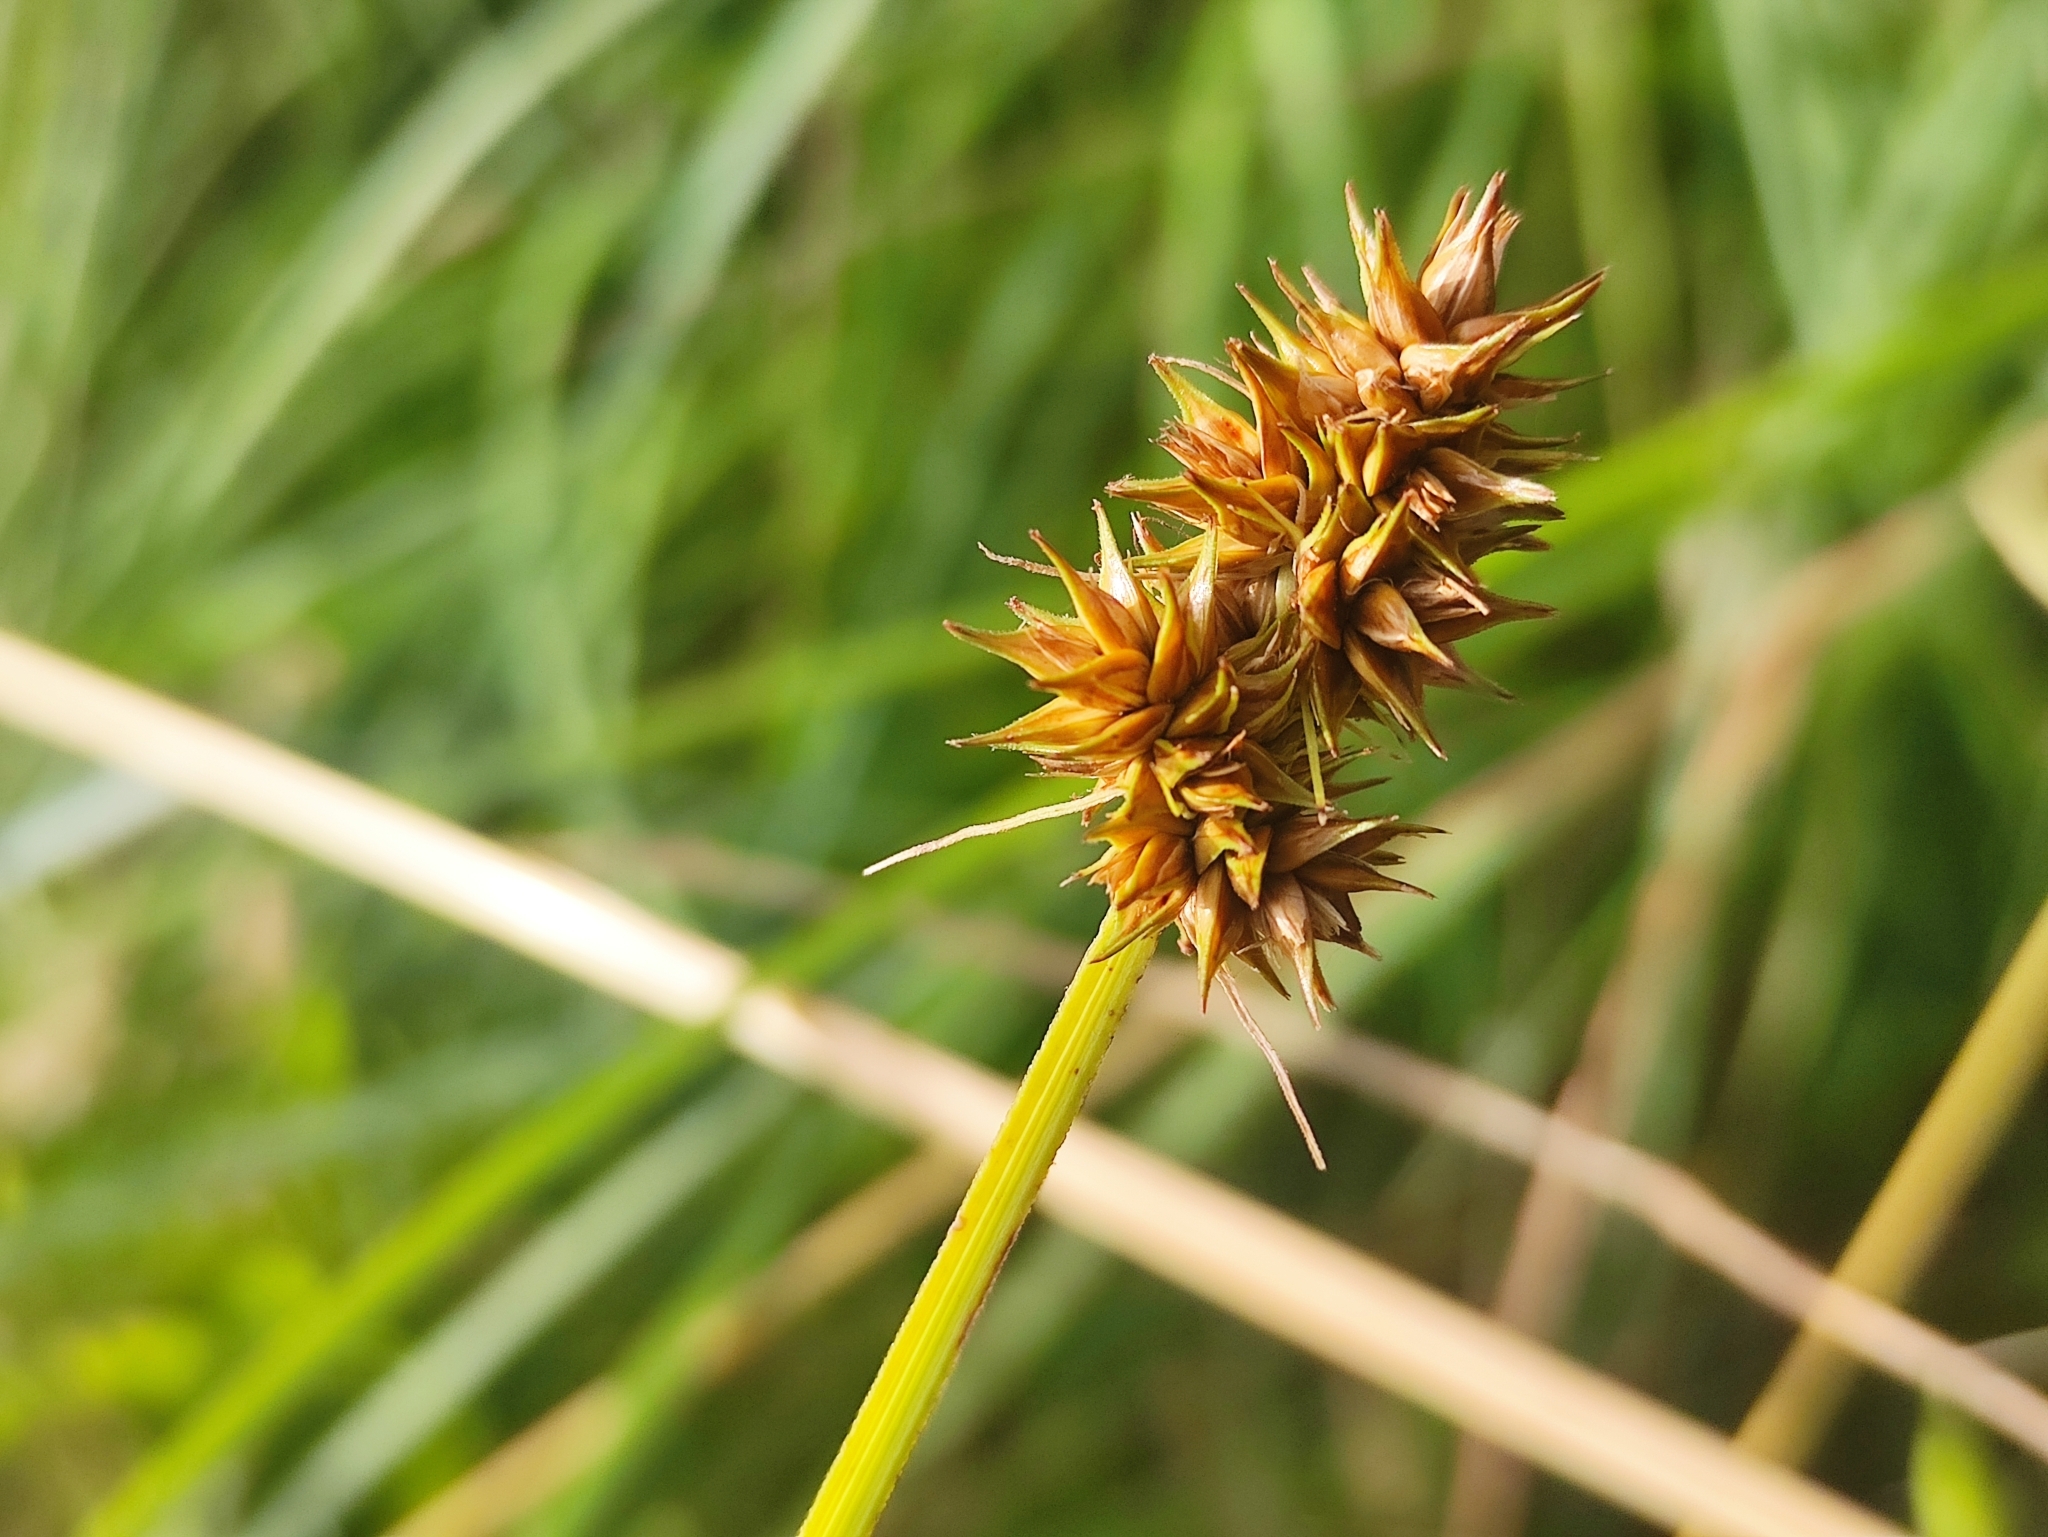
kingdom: Plantae
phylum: Tracheophyta
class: Liliopsida
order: Poales
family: Cyperaceae
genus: Carex
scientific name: Carex otrubae
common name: False fox-sedge
